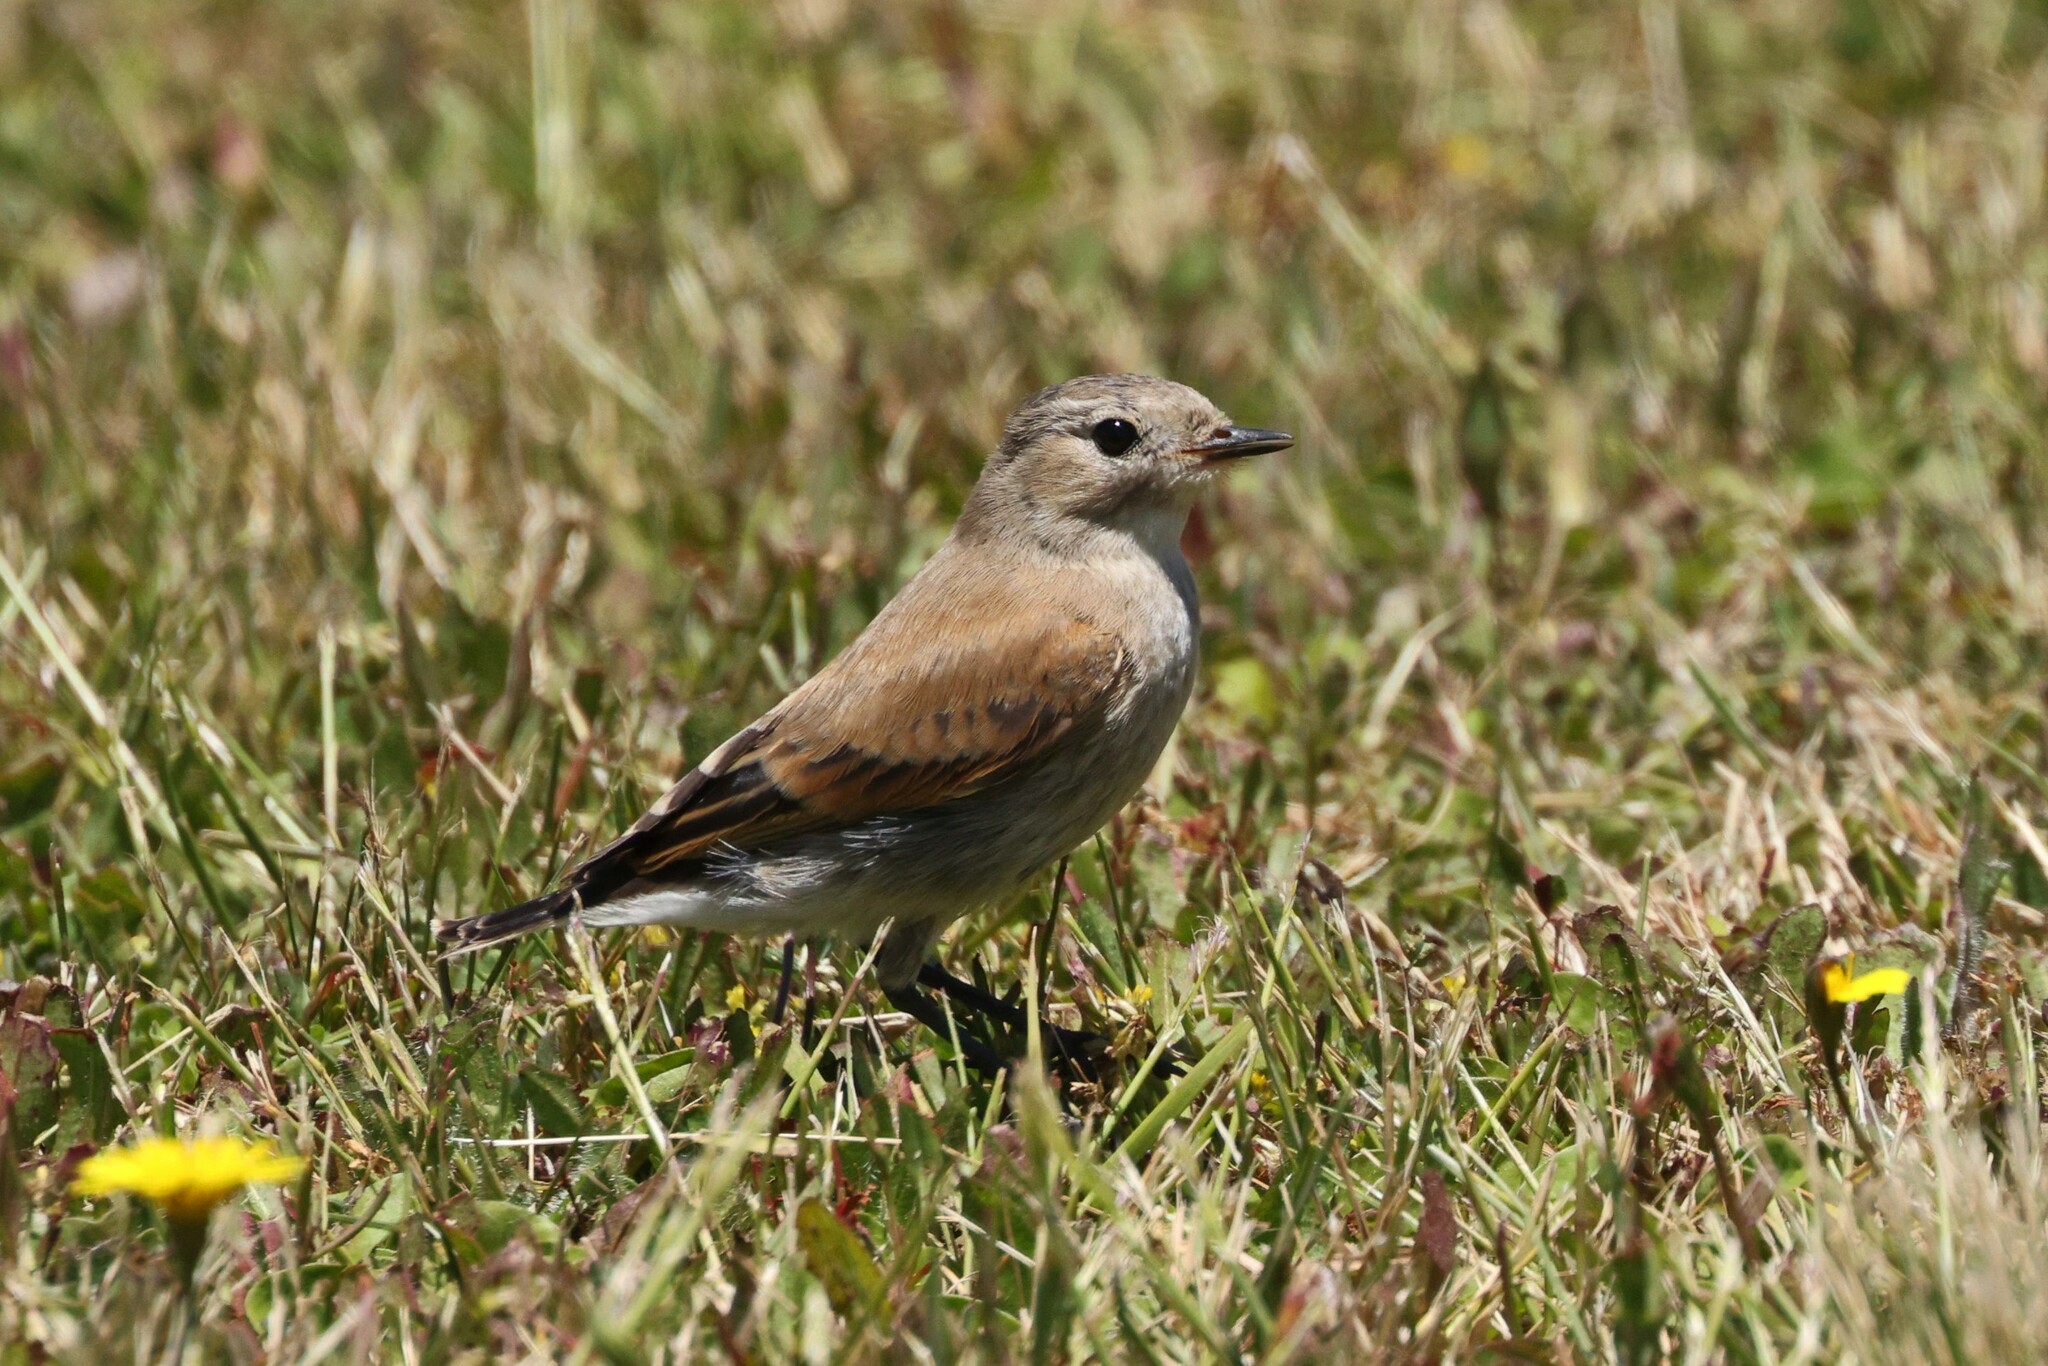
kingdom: Animalia
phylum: Chordata
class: Aves
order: Passeriformes
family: Tyrannidae
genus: Lessonia
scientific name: Lessonia rufa
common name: Austral negrito
